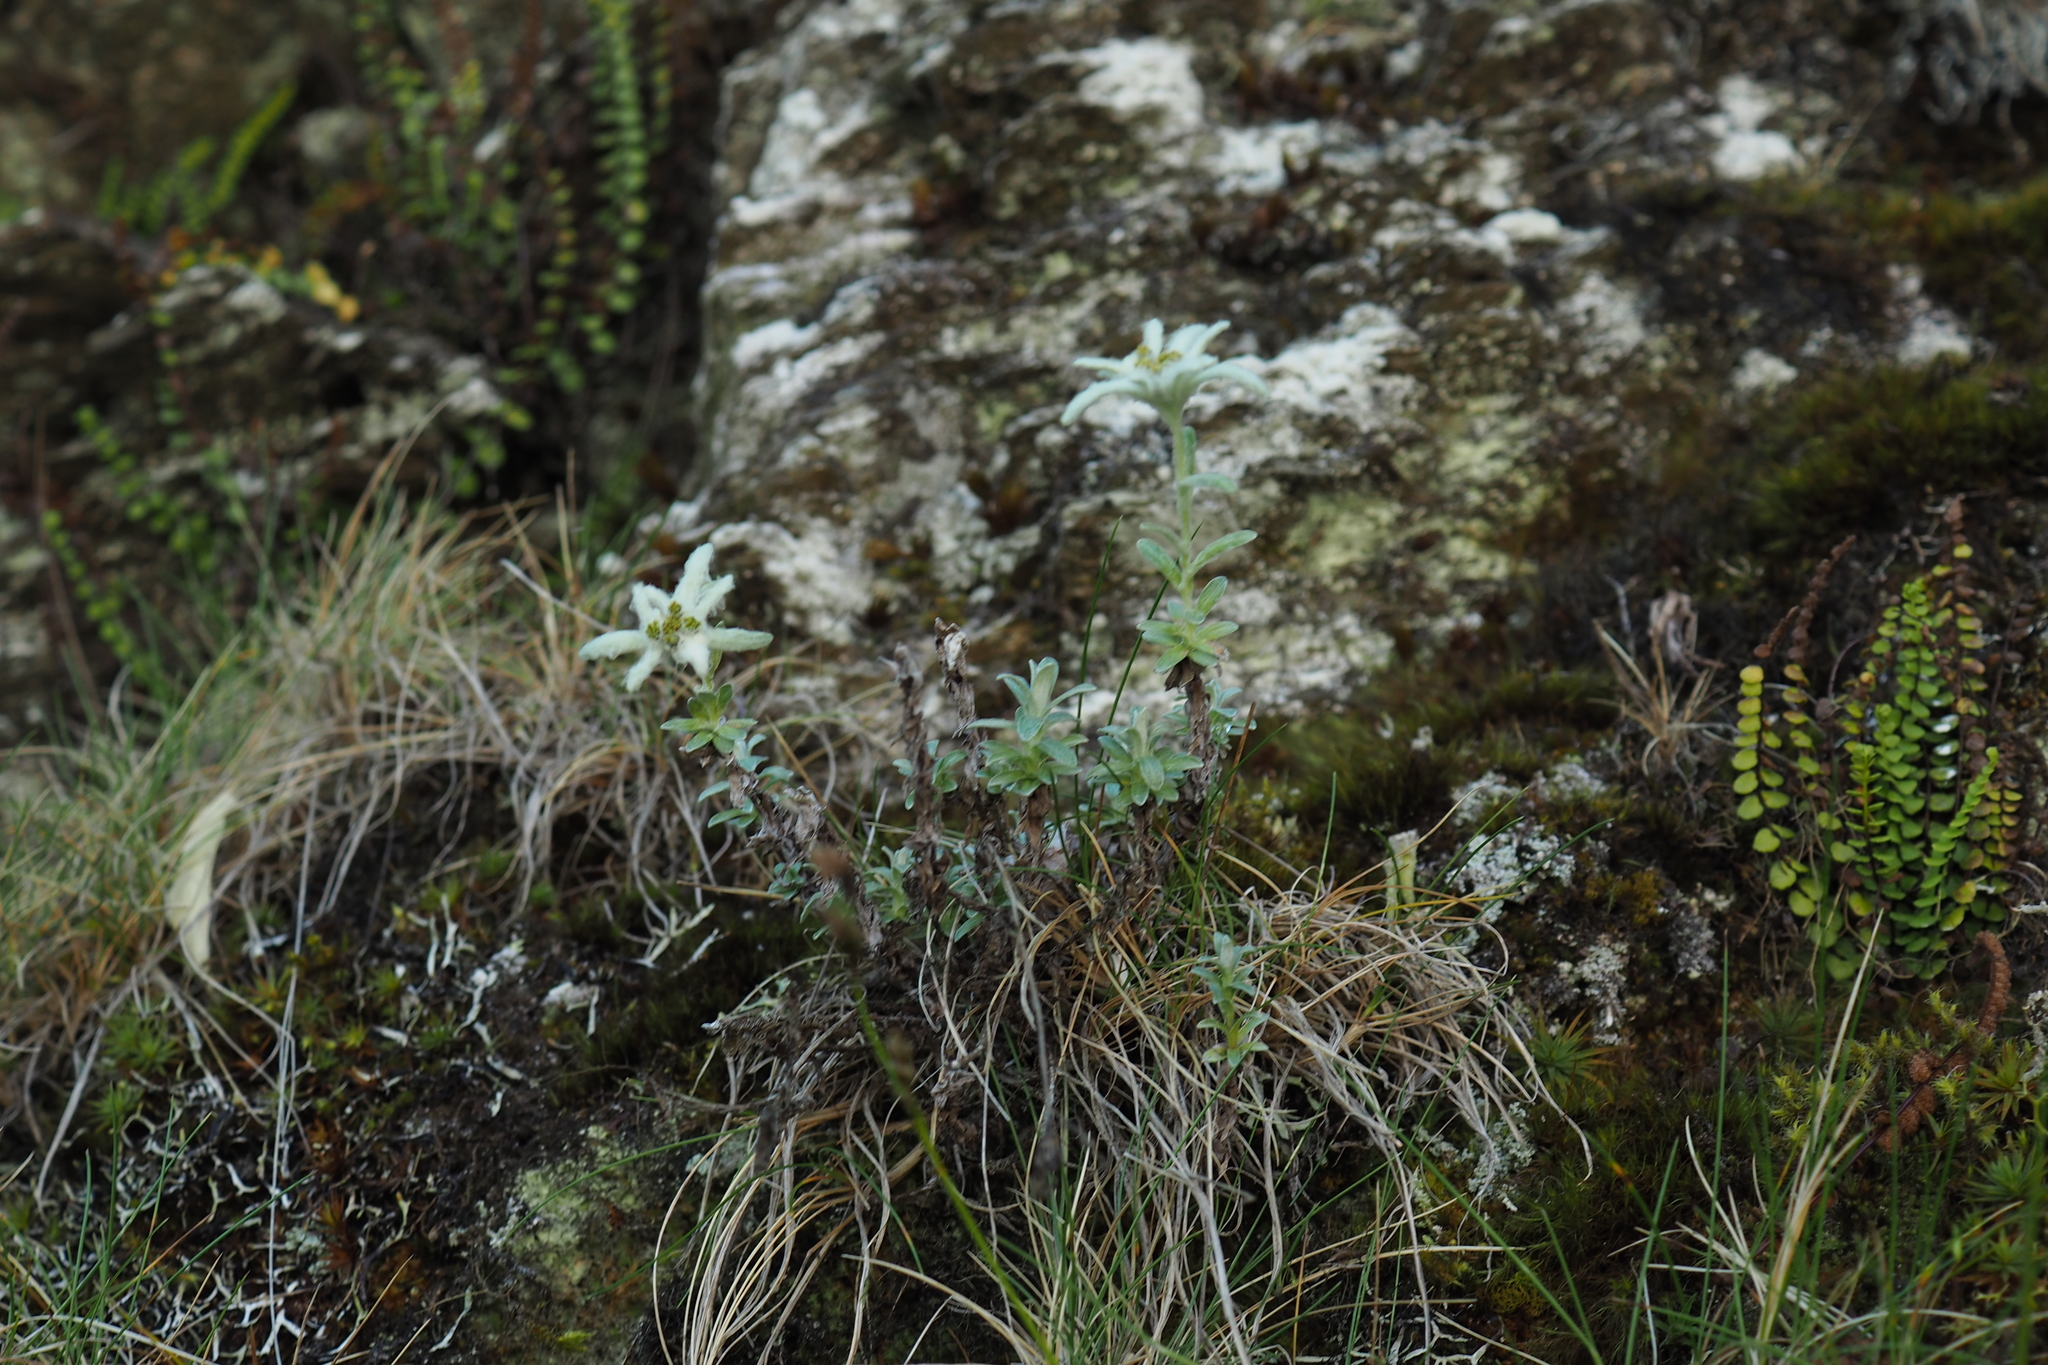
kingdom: Plantae
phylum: Tracheophyta
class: Magnoliopsida
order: Asterales
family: Asteraceae
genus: Leontopodium
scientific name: Leontopodium microphyllum
